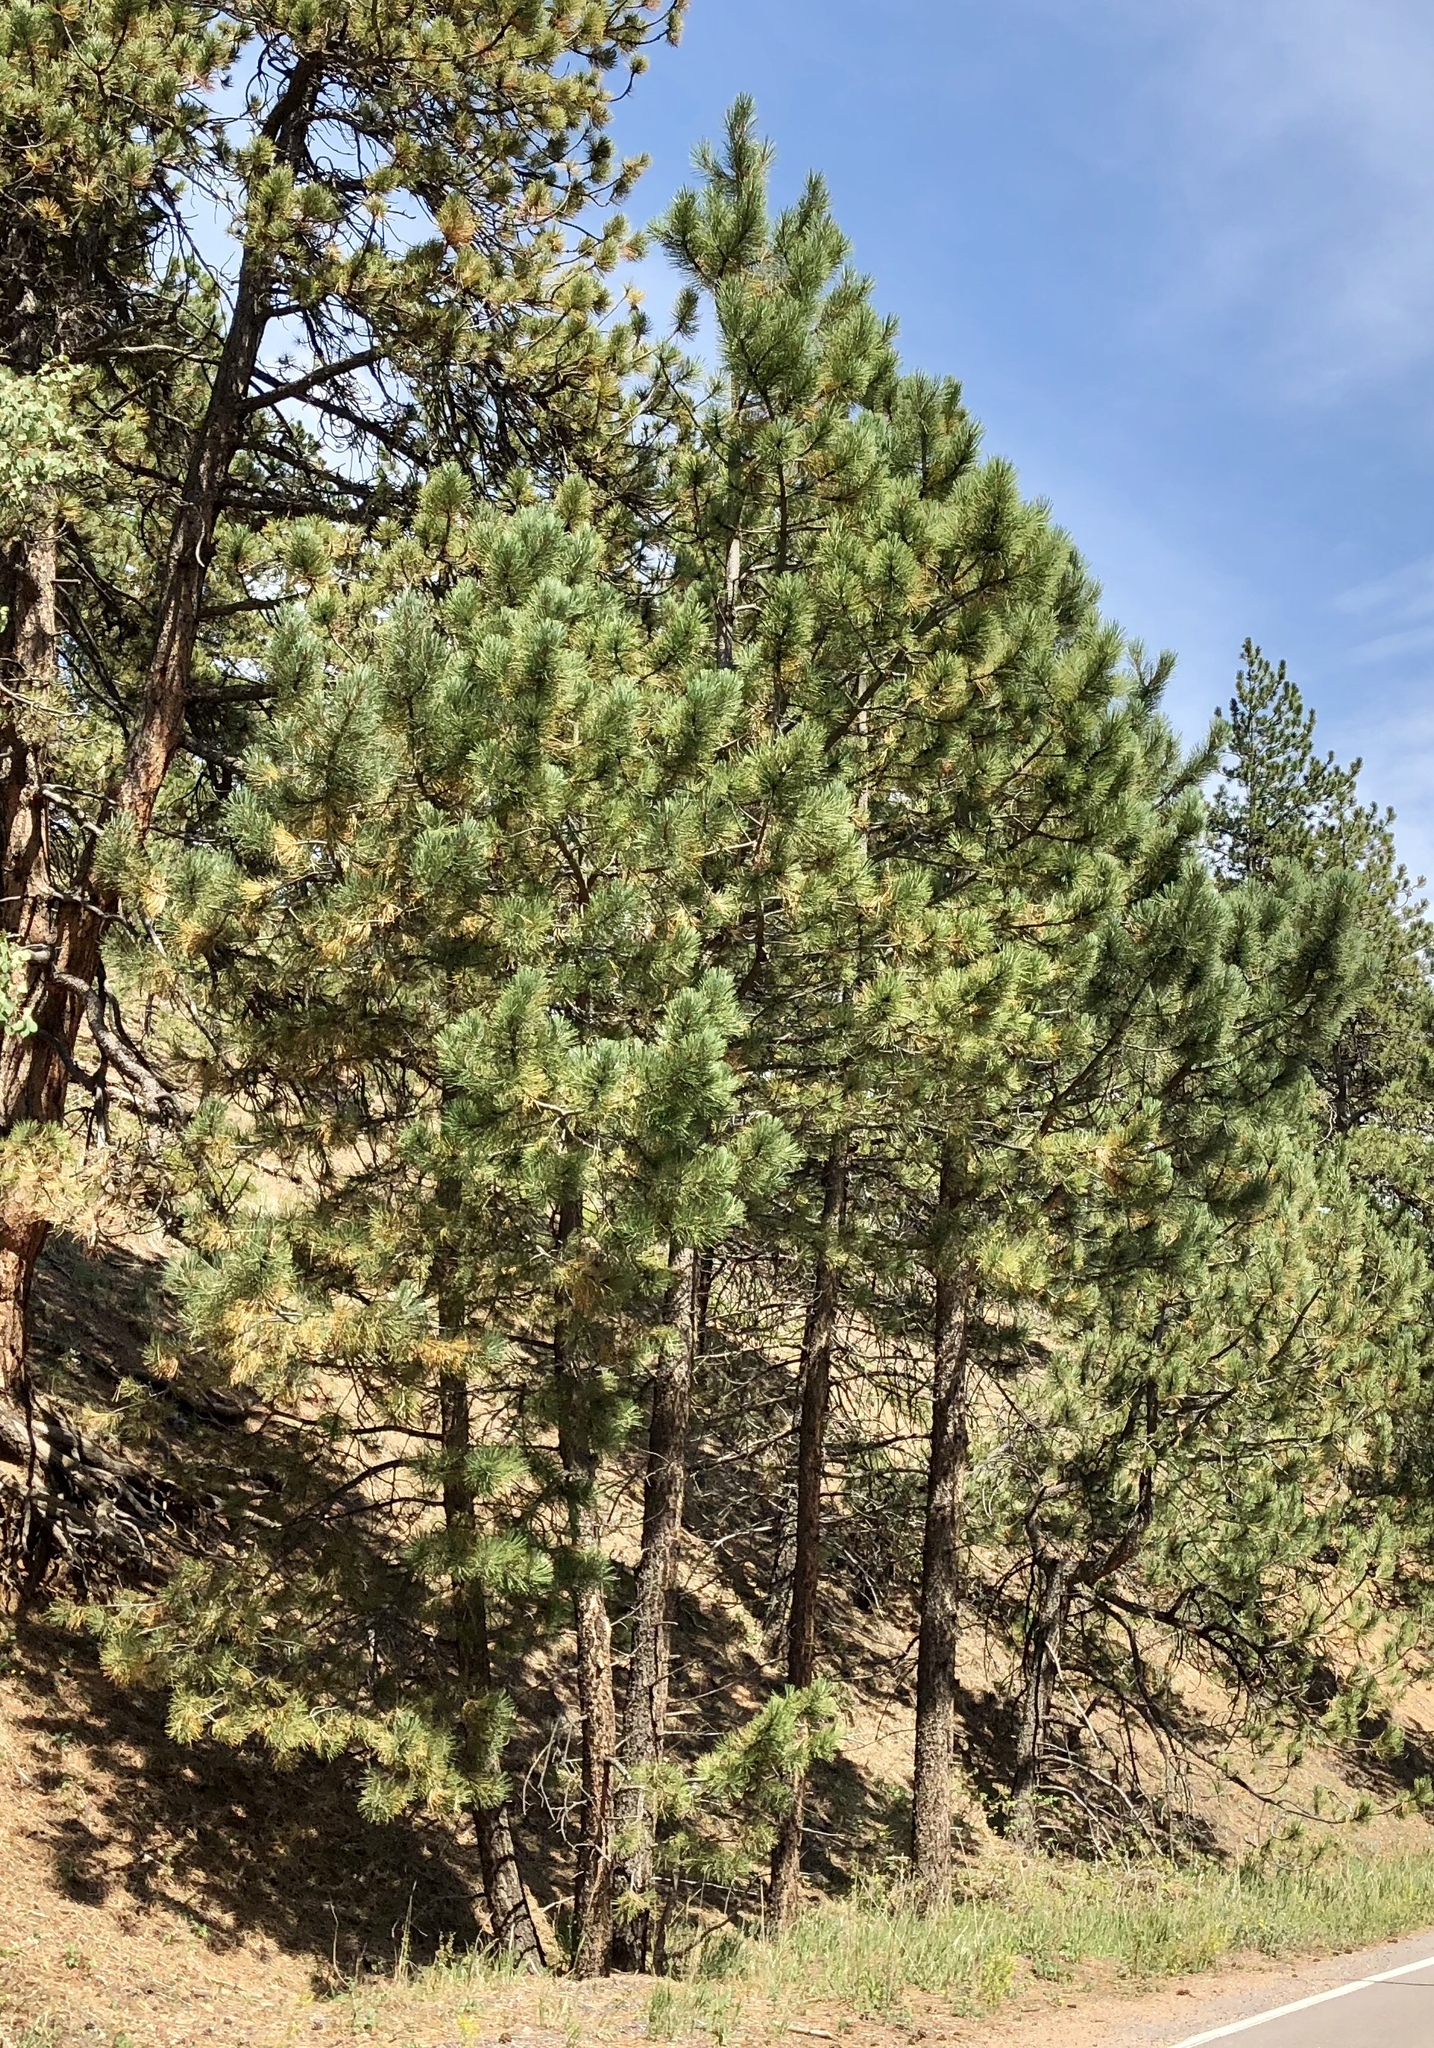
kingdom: Plantae
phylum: Tracheophyta
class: Pinopsida
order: Pinales
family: Pinaceae
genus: Pinus
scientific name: Pinus ponderosa
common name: Western yellow-pine
